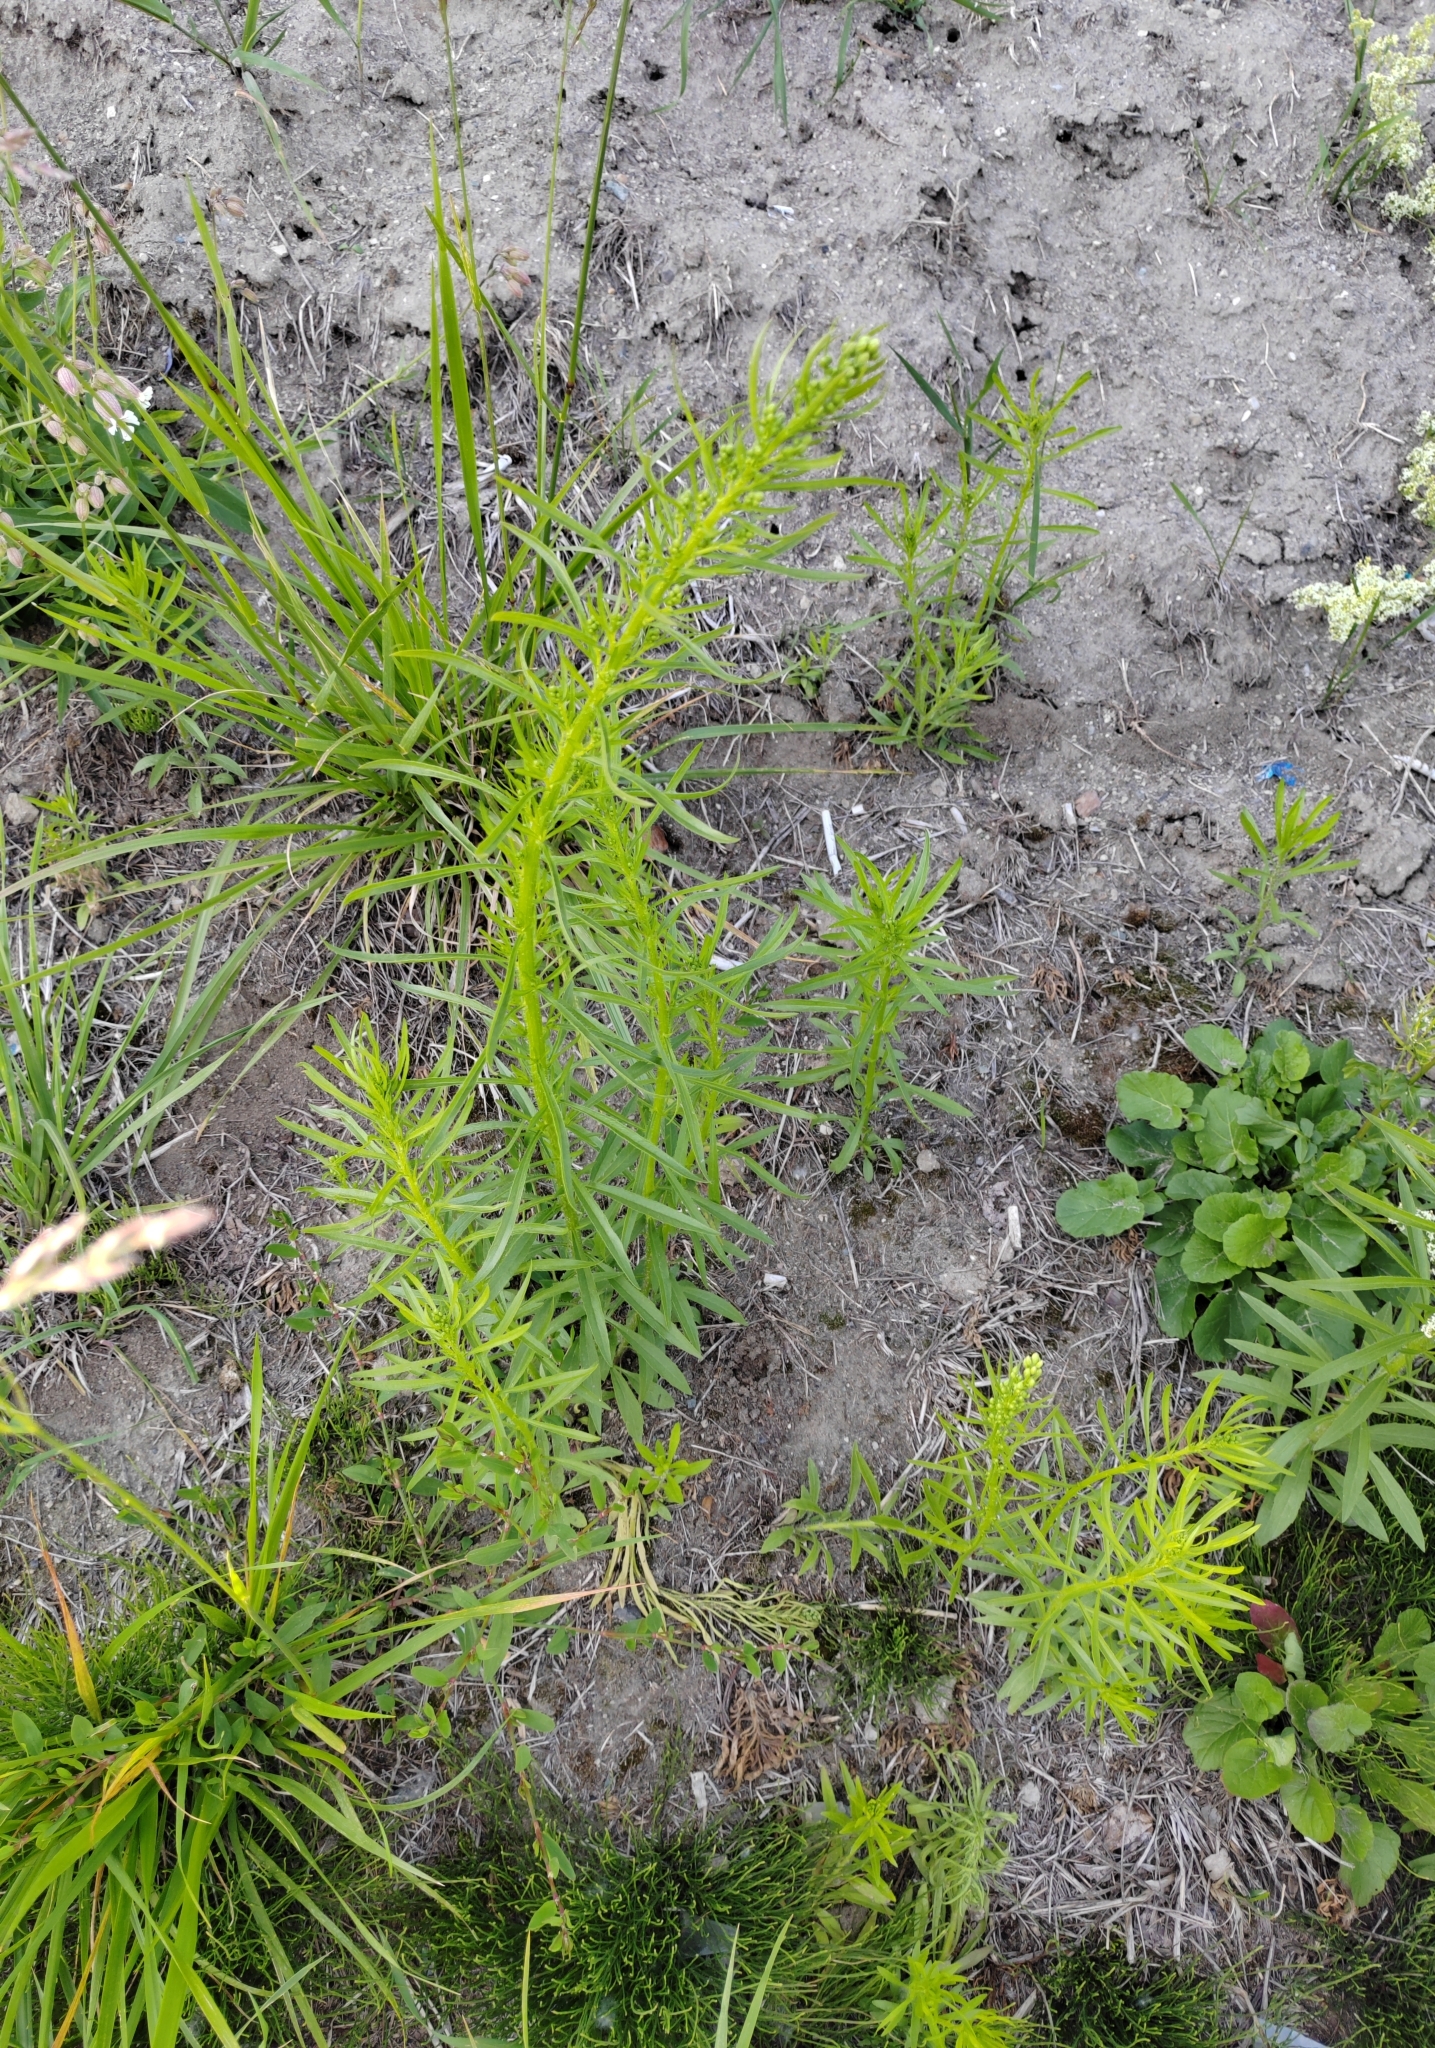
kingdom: Plantae
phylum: Tracheophyta
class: Magnoliopsida
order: Asterales
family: Asteraceae
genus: Erigeron
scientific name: Erigeron canadensis
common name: Canadian fleabane
